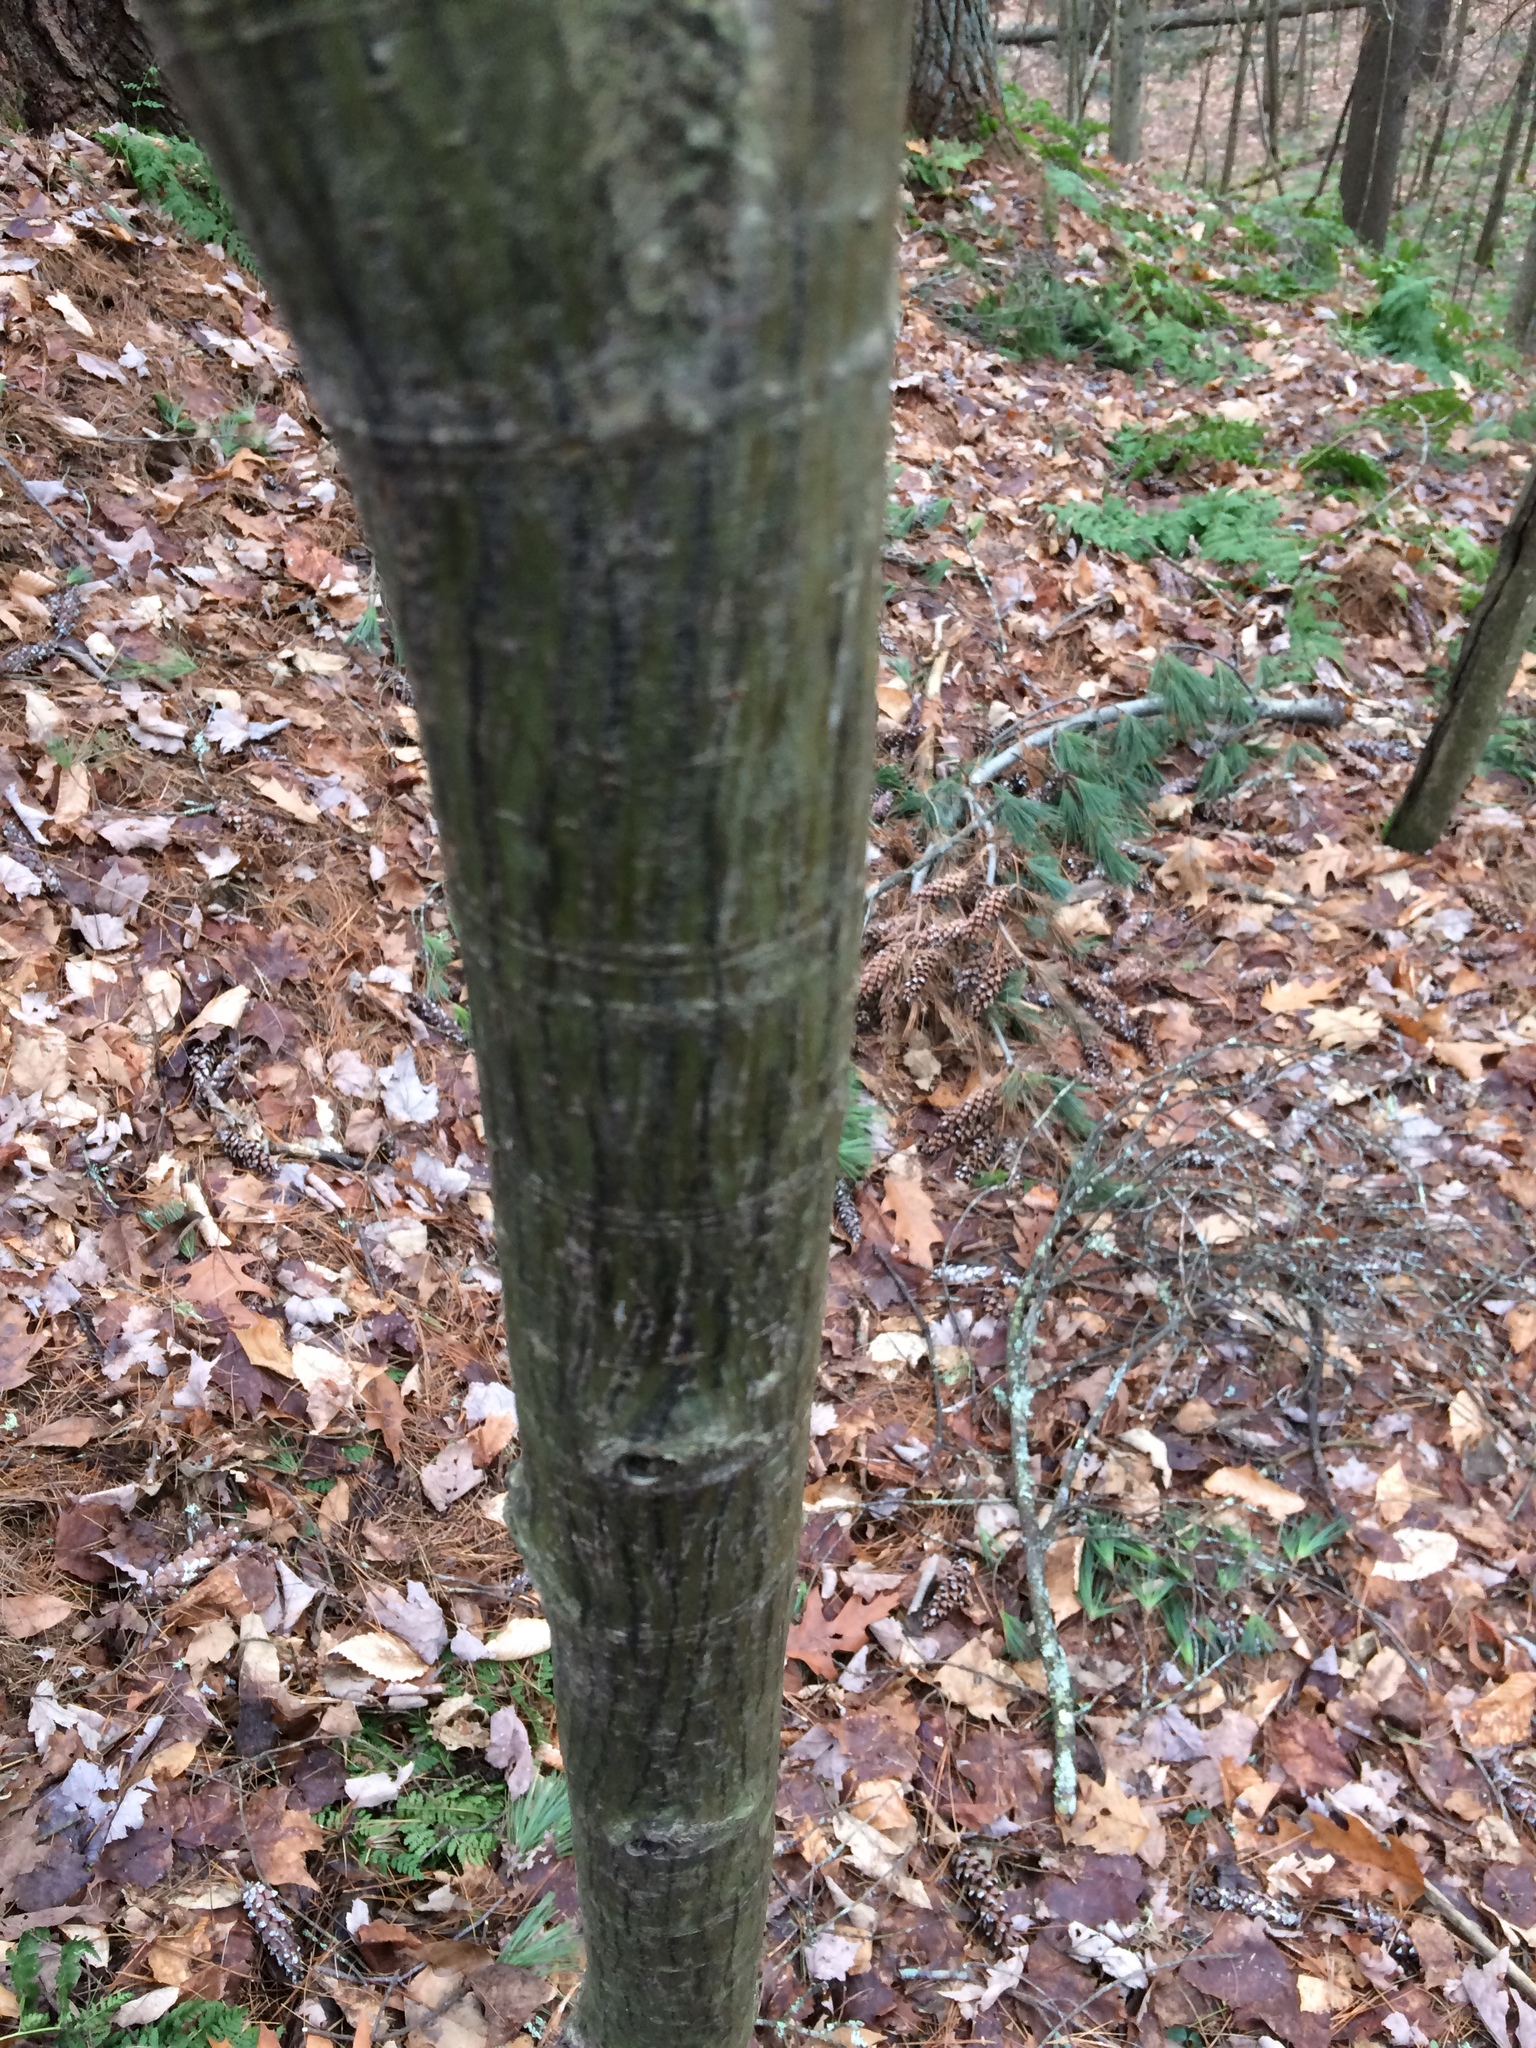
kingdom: Plantae
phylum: Tracheophyta
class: Magnoliopsida
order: Sapindales
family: Sapindaceae
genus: Acer
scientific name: Acer pensylvanicum
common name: Moosewood
